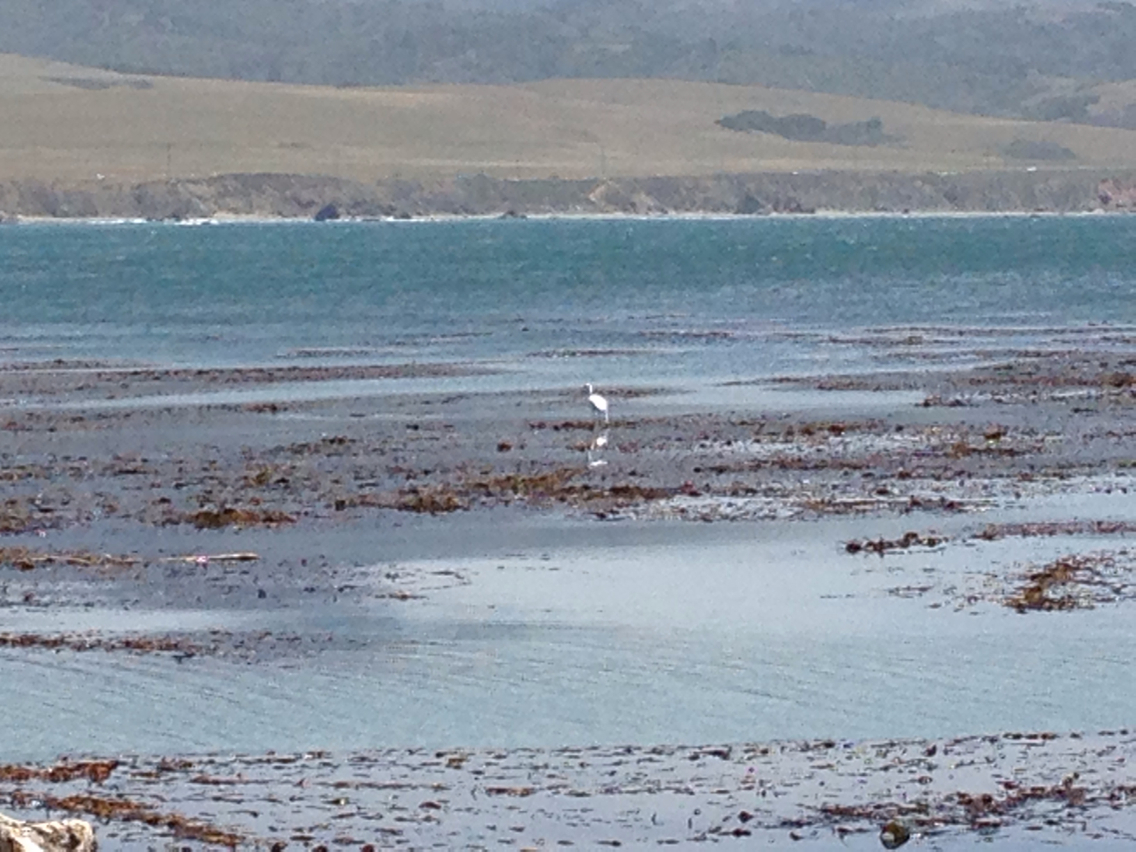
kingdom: Animalia
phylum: Chordata
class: Aves
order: Pelecaniformes
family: Ardeidae
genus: Ardea
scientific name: Ardea alba
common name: Great egret
